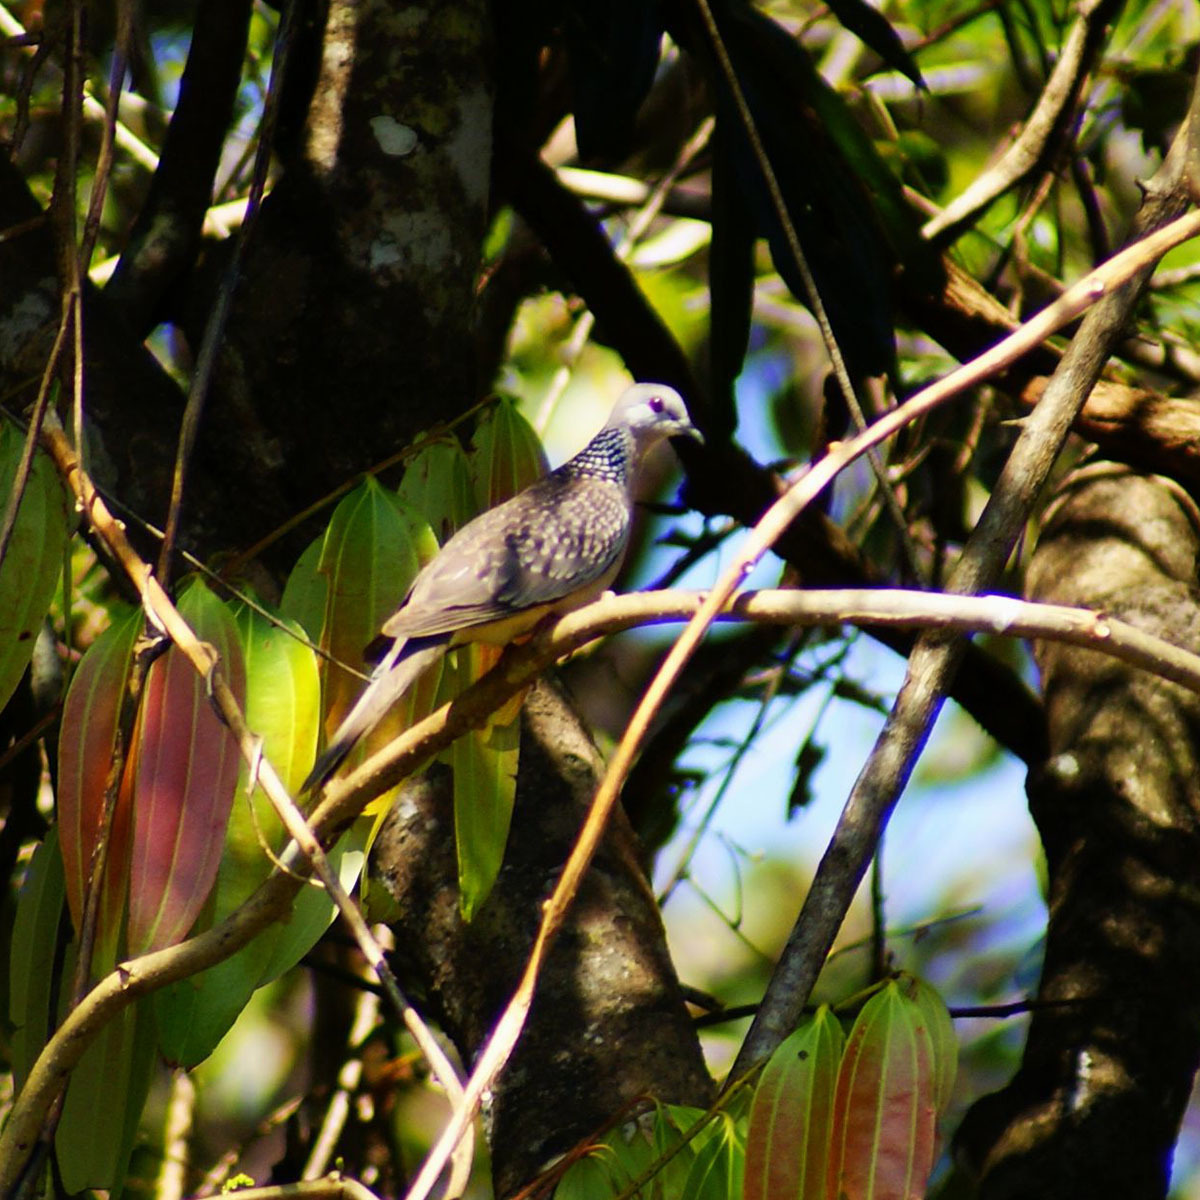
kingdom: Animalia
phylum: Chordata
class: Aves
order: Columbiformes
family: Columbidae
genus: Spilopelia
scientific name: Spilopelia chinensis
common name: Spotted dove
